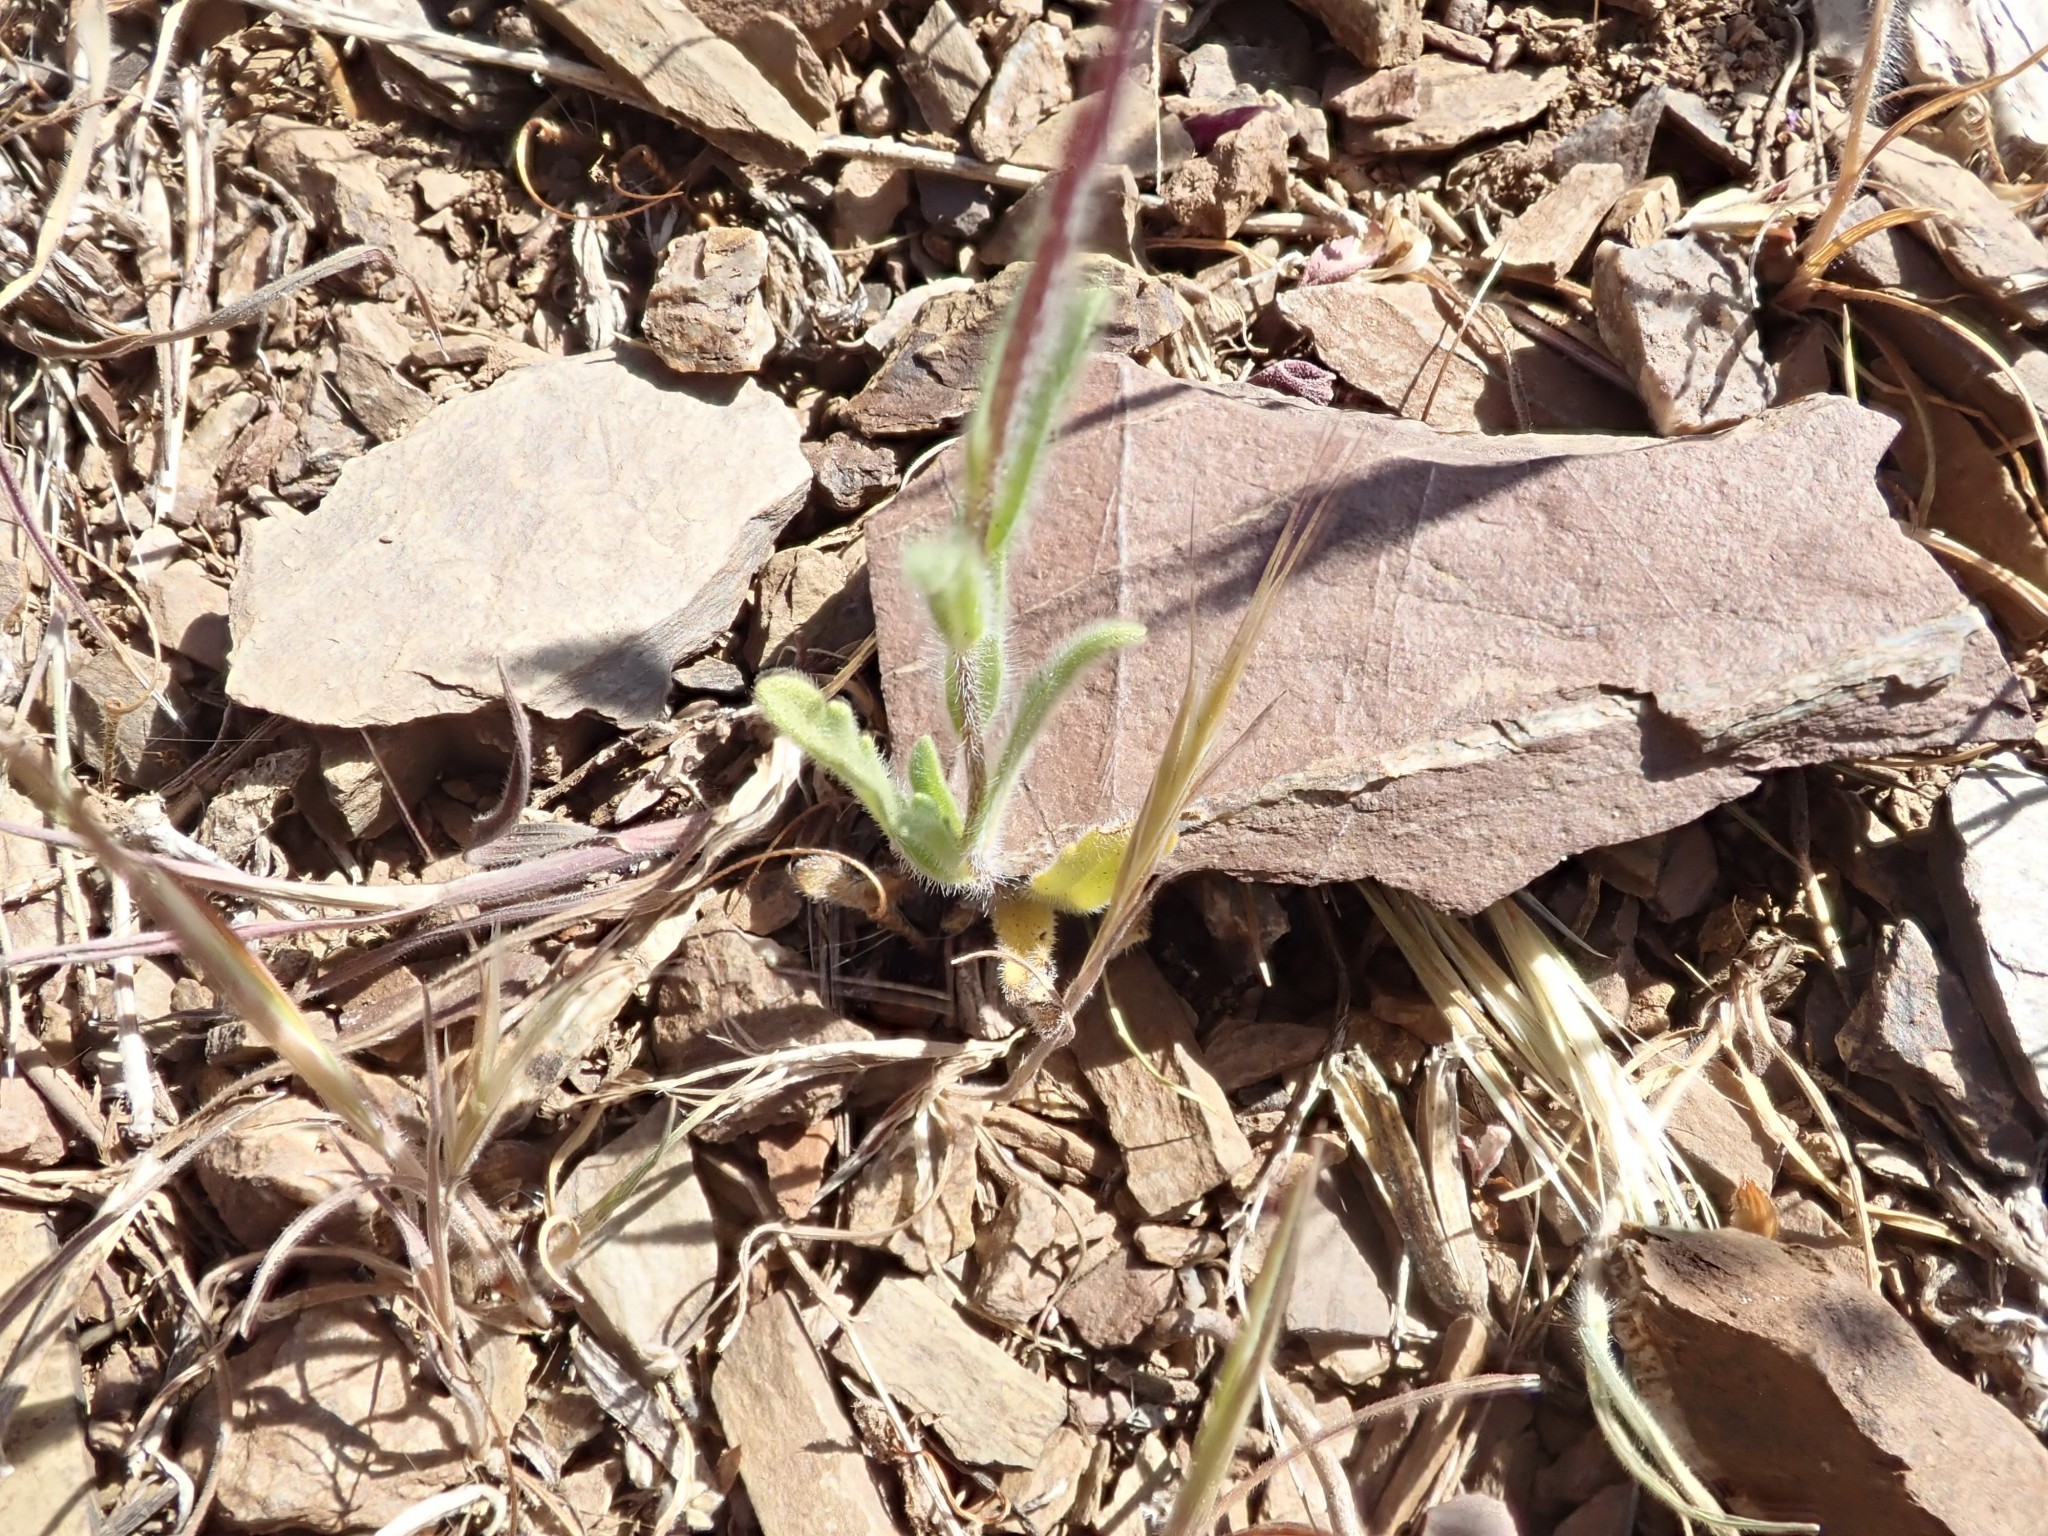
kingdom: Plantae
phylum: Tracheophyta
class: Magnoliopsida
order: Asterales
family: Asteraceae
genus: Layia
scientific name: Layia platyglossa
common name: Tidy-tips
